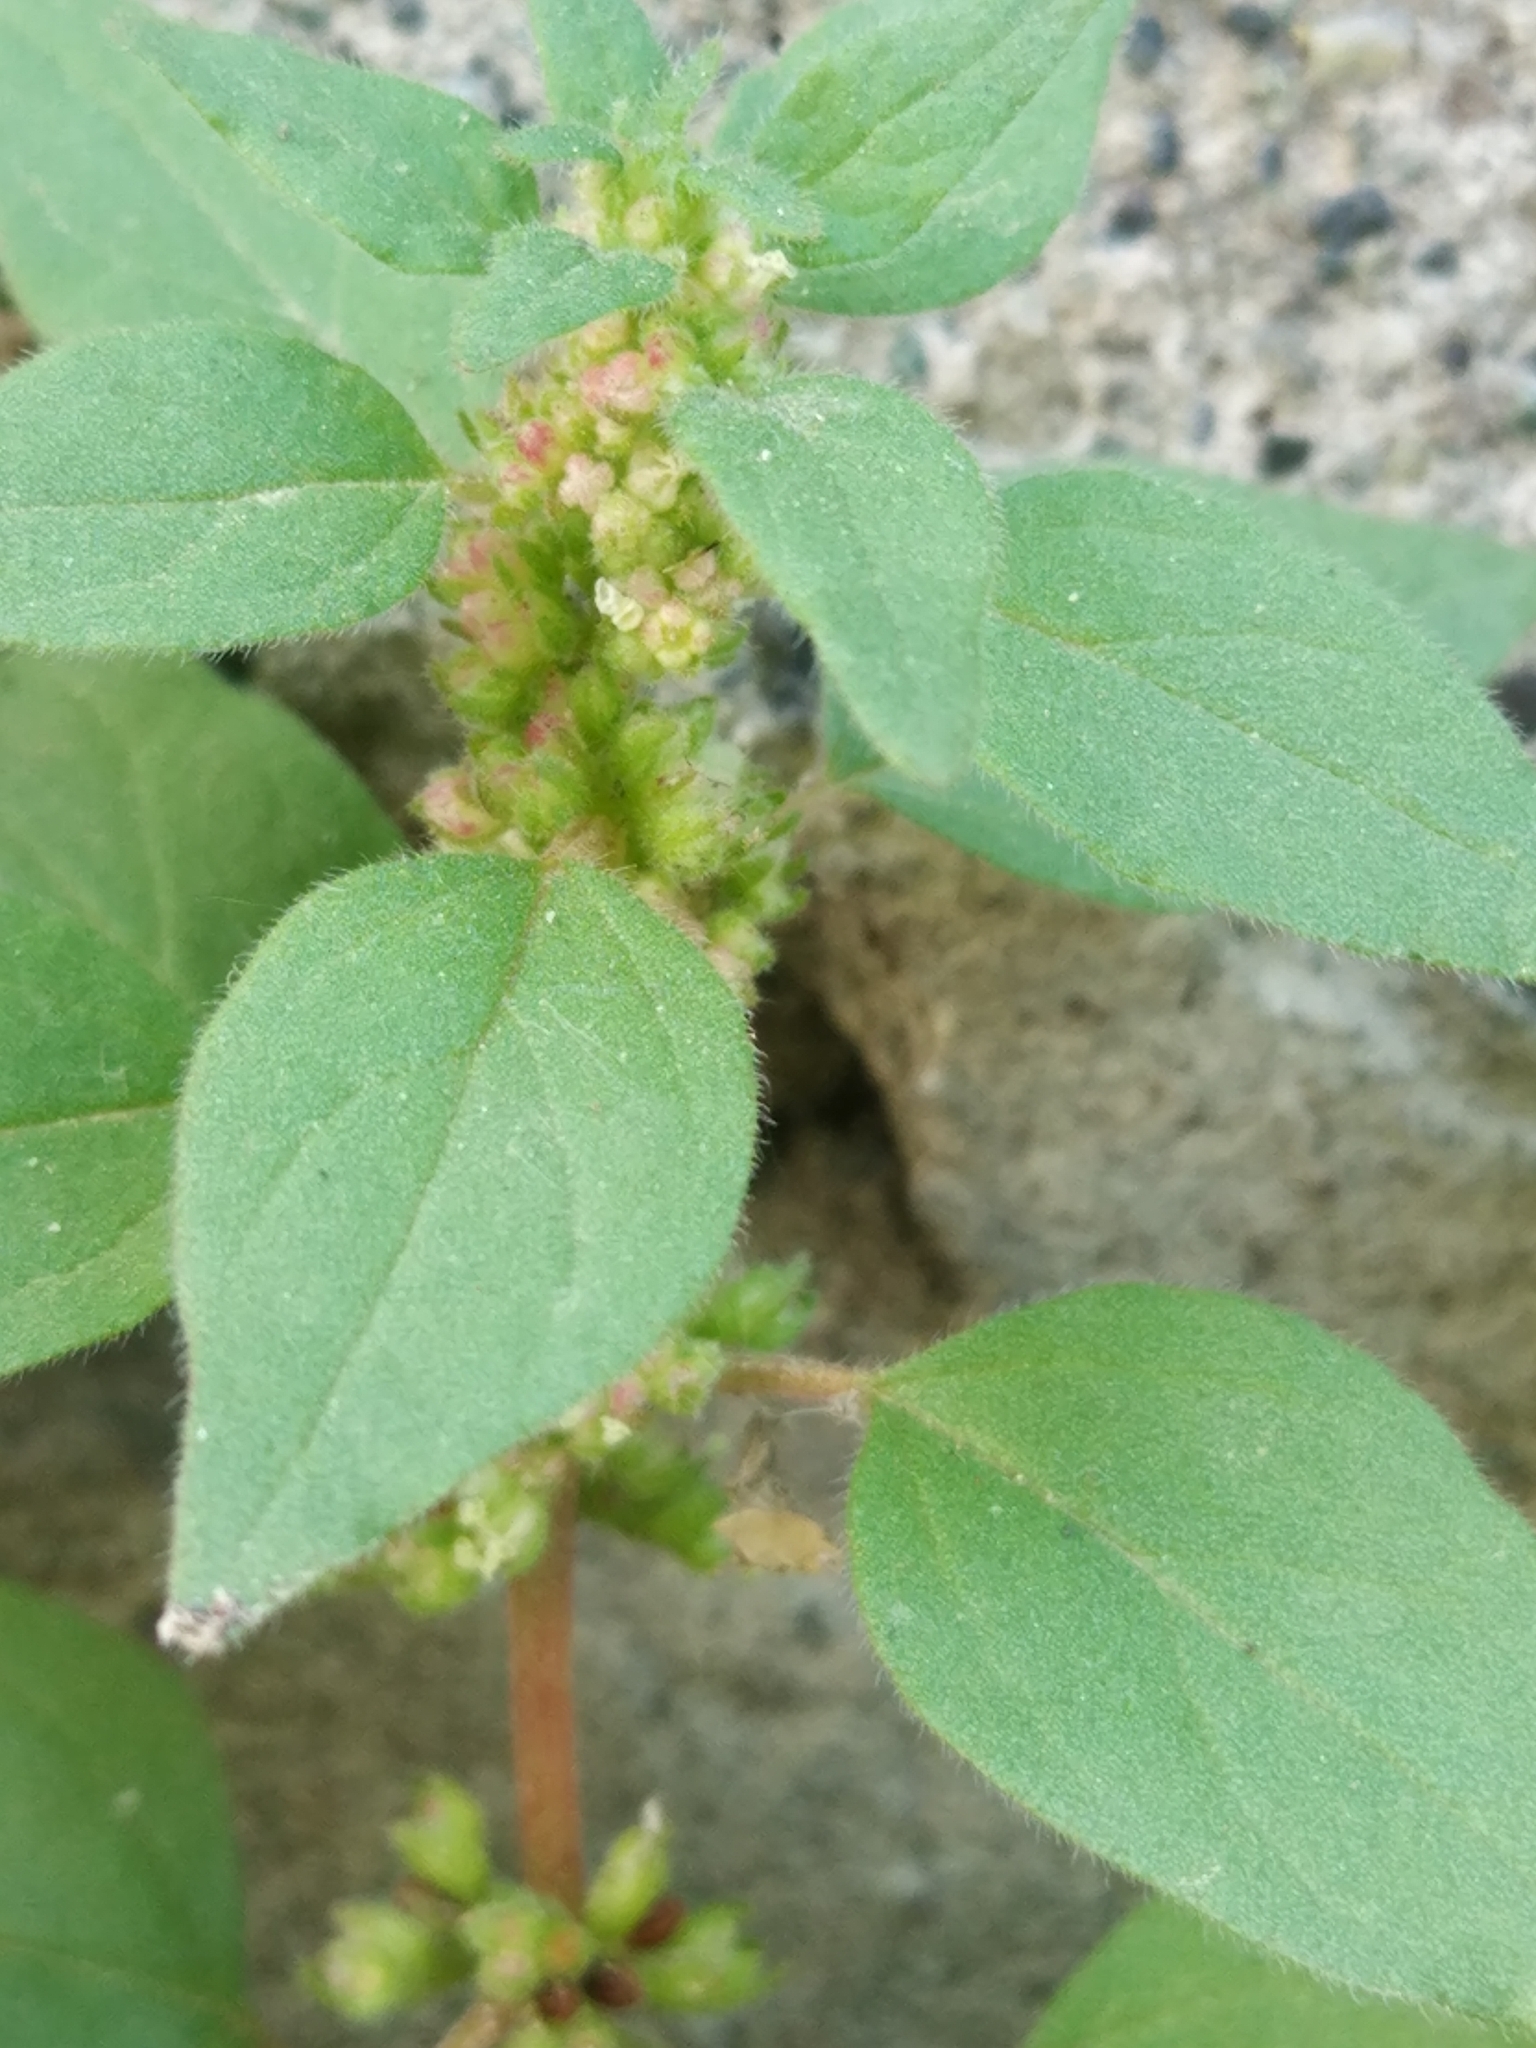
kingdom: Plantae
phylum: Tracheophyta
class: Magnoliopsida
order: Rosales
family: Urticaceae
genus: Parietaria
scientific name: Parietaria judaica
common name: Pellitory-of-the-wall
